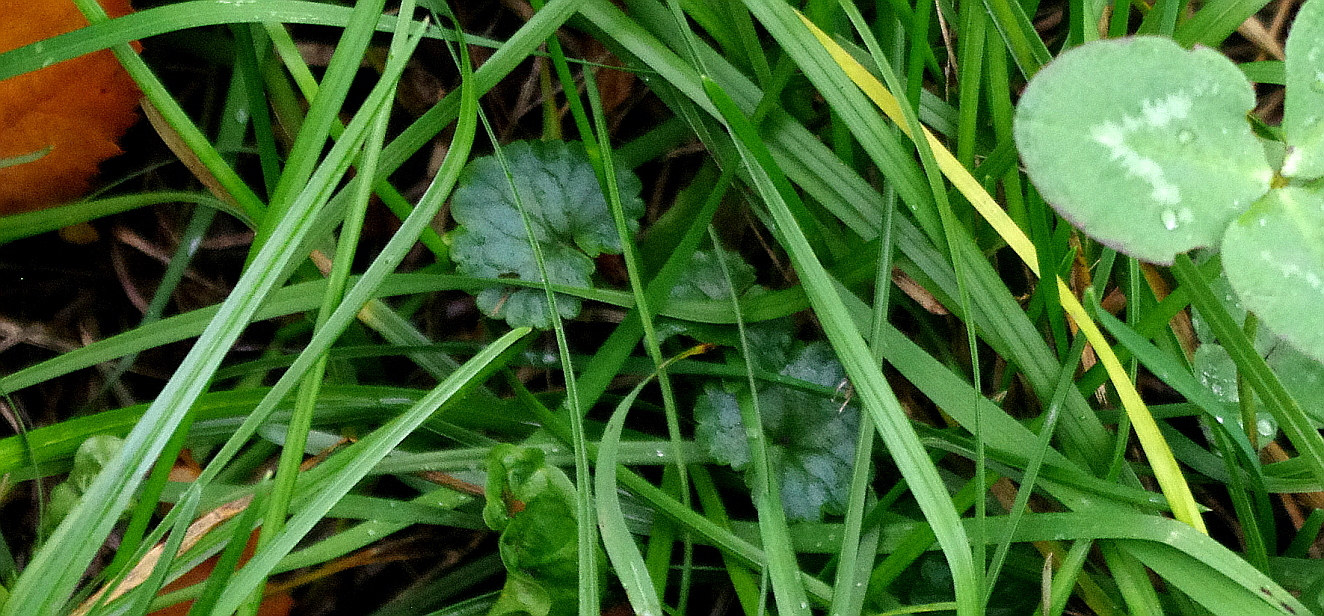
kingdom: Plantae
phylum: Tracheophyta
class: Magnoliopsida
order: Lamiales
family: Lamiaceae
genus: Glechoma
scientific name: Glechoma hederacea
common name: Ground ivy
